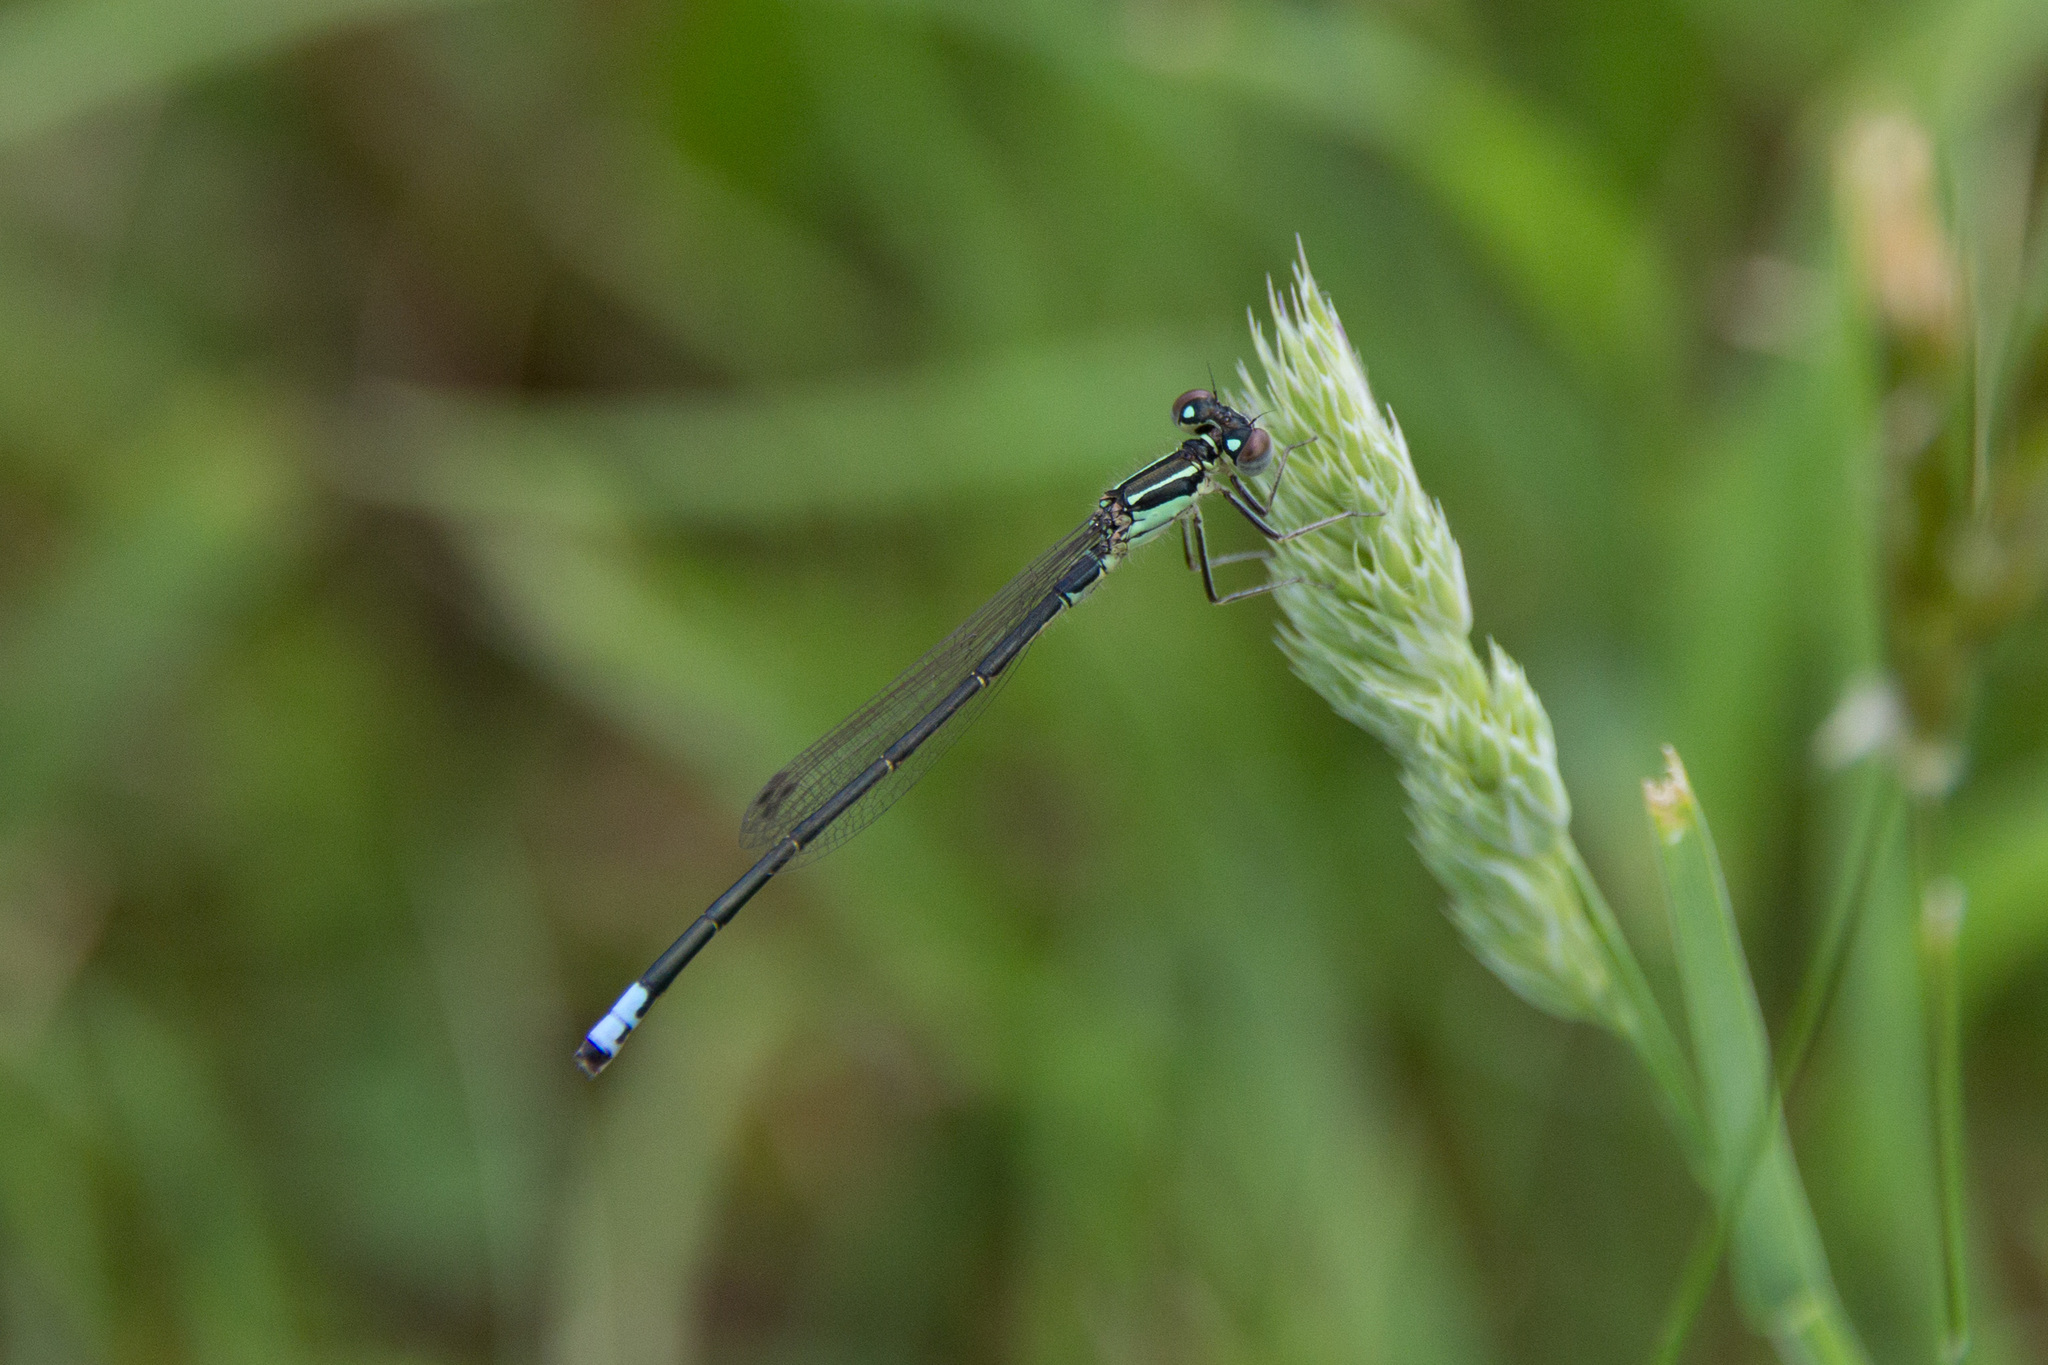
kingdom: Animalia
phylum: Arthropoda
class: Insecta
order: Odonata
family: Coenagrionidae
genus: Ischnura
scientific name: Ischnura verticalis
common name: Eastern forktail
